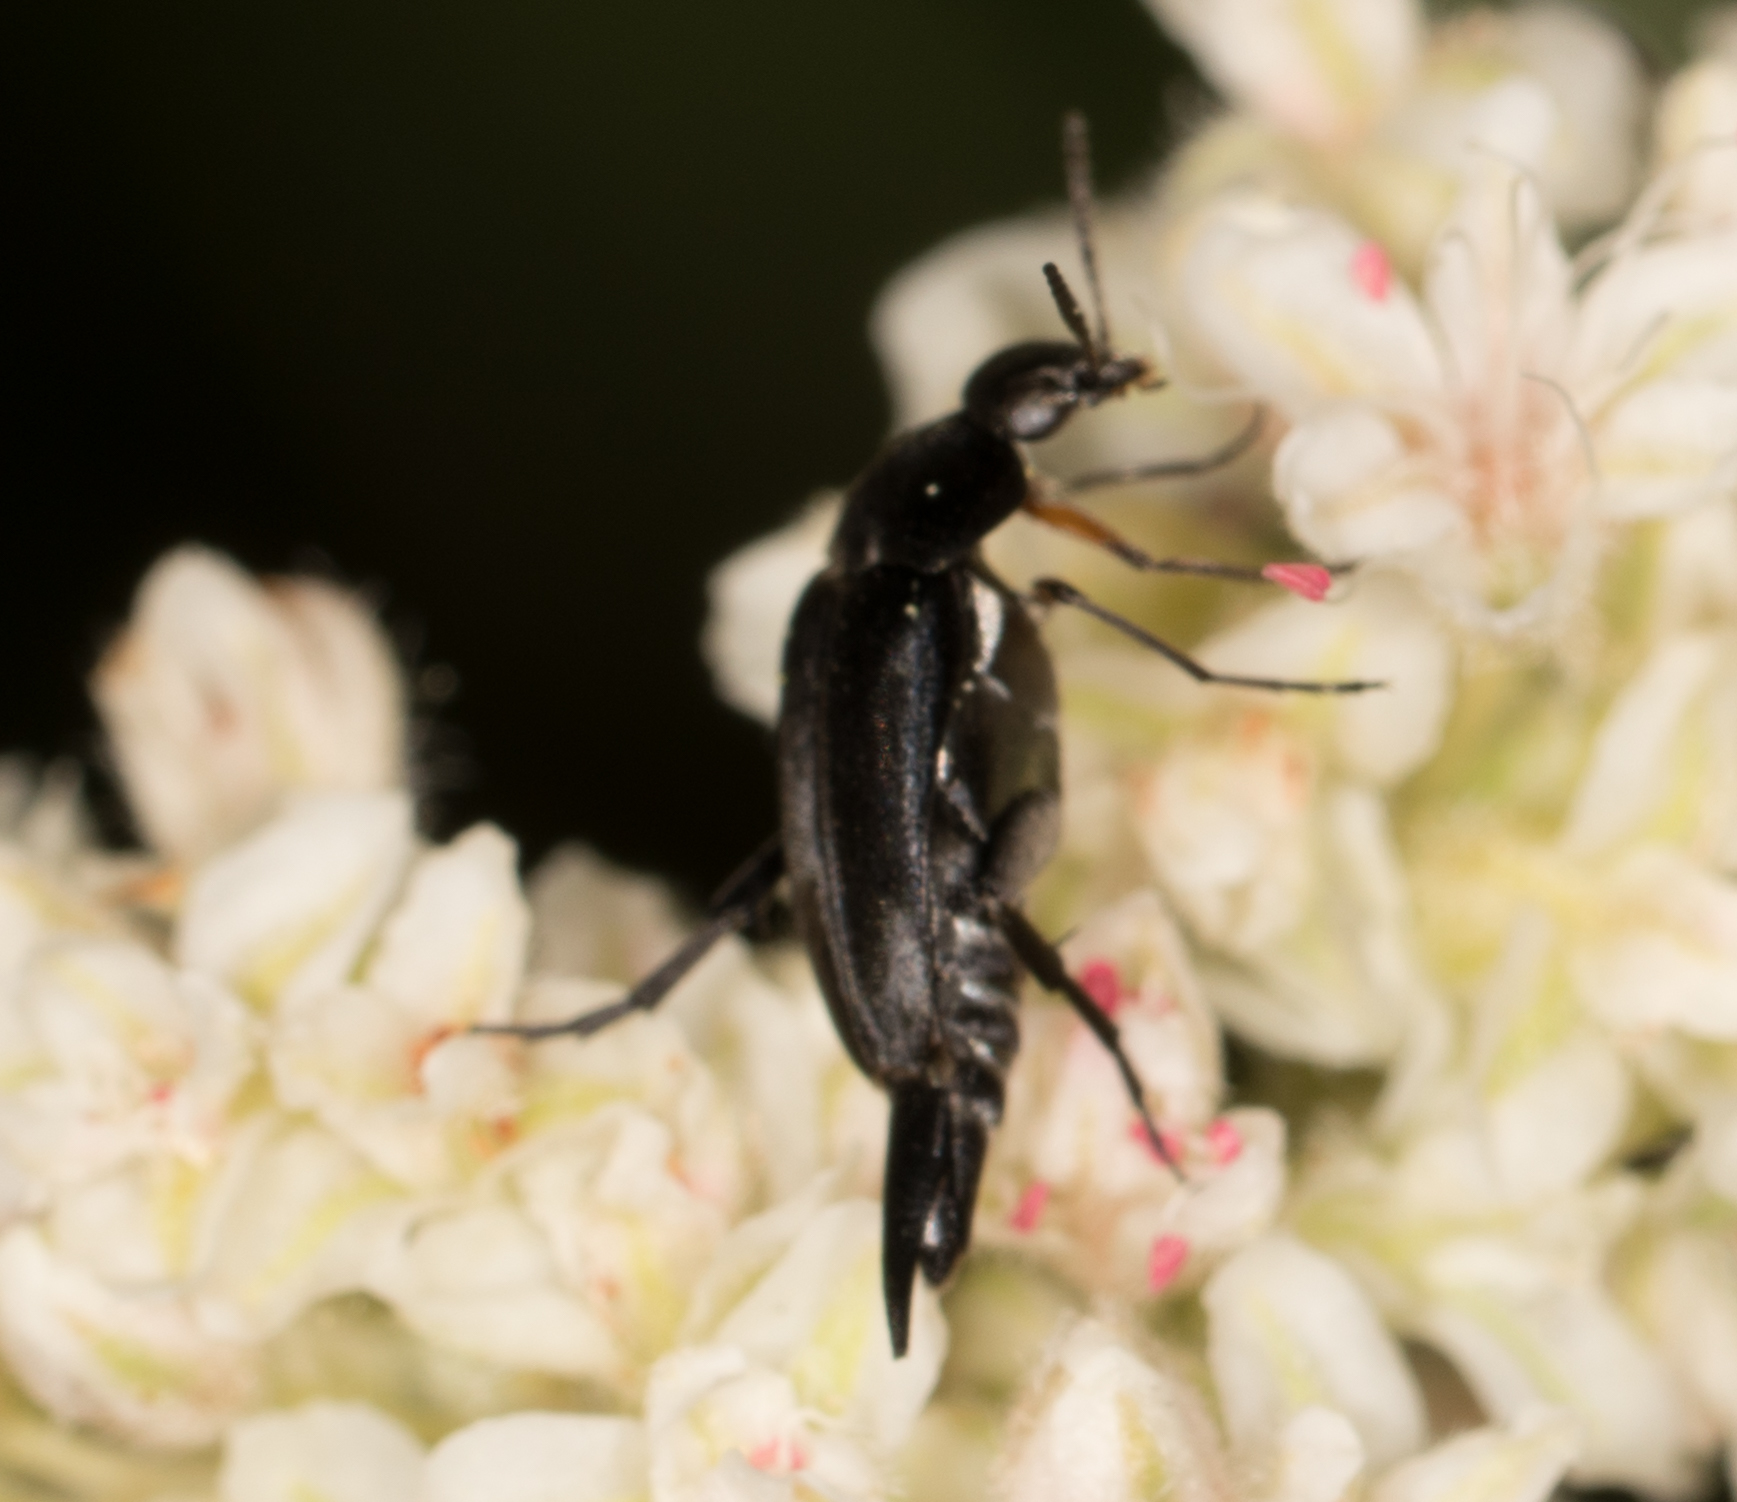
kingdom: Animalia
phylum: Arthropoda
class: Insecta
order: Coleoptera
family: Mordellidae
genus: Mordella
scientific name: Mordella hubbsi
